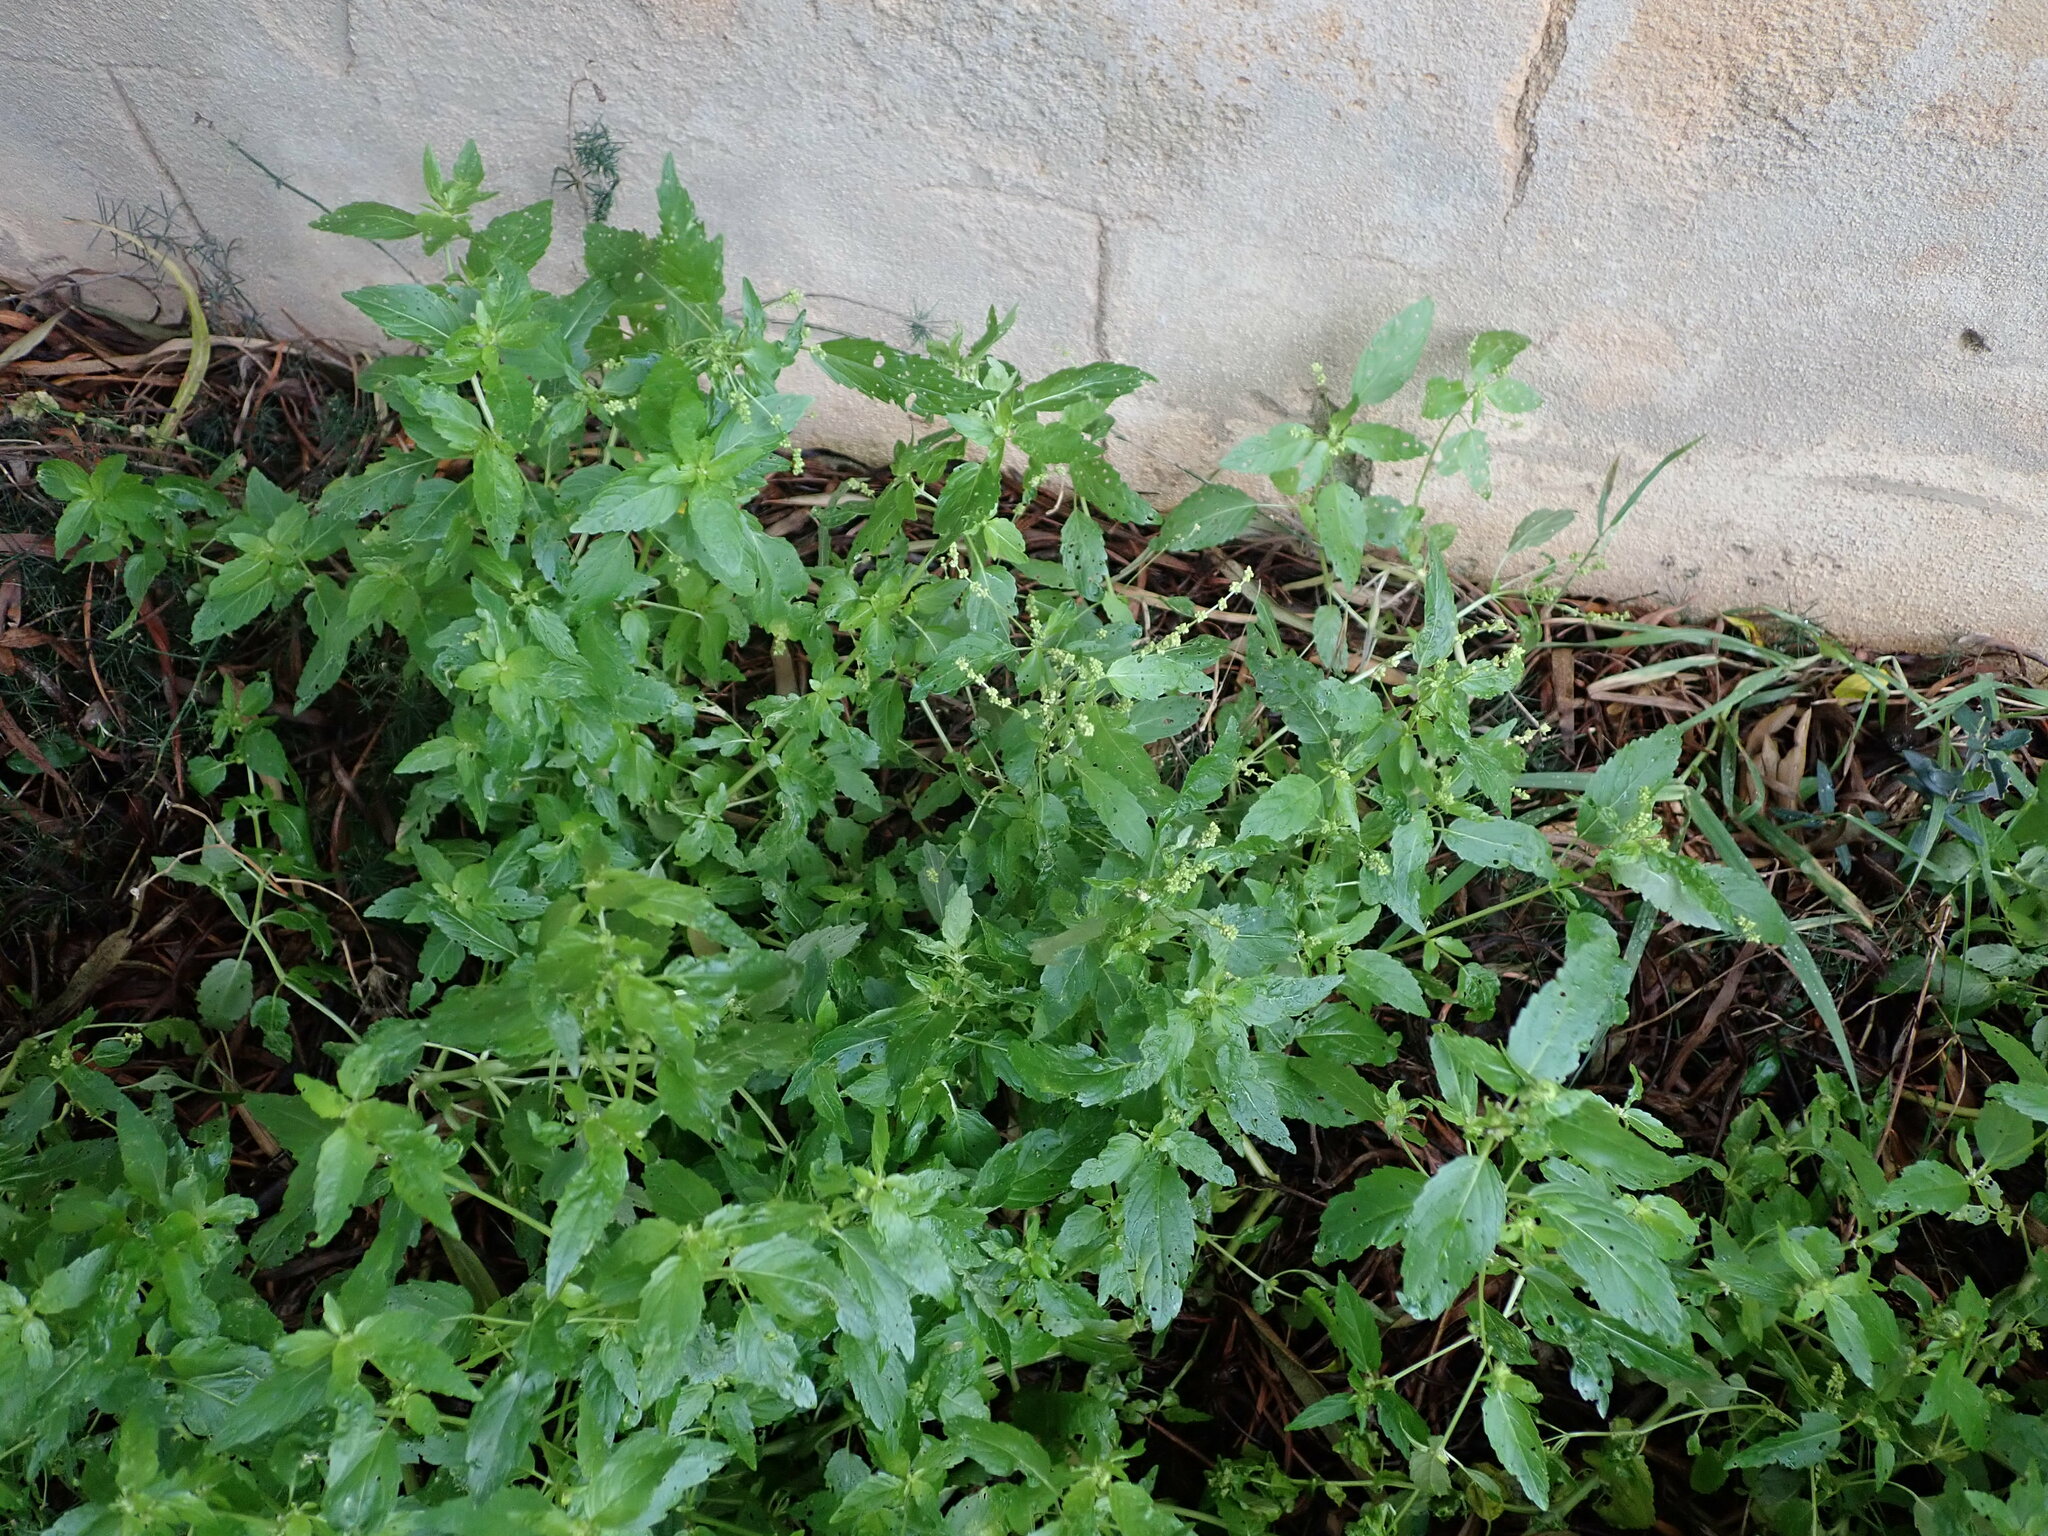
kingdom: Plantae
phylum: Tracheophyta
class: Magnoliopsida
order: Malpighiales
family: Euphorbiaceae
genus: Mercurialis
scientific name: Mercurialis annua
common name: Annual mercury
